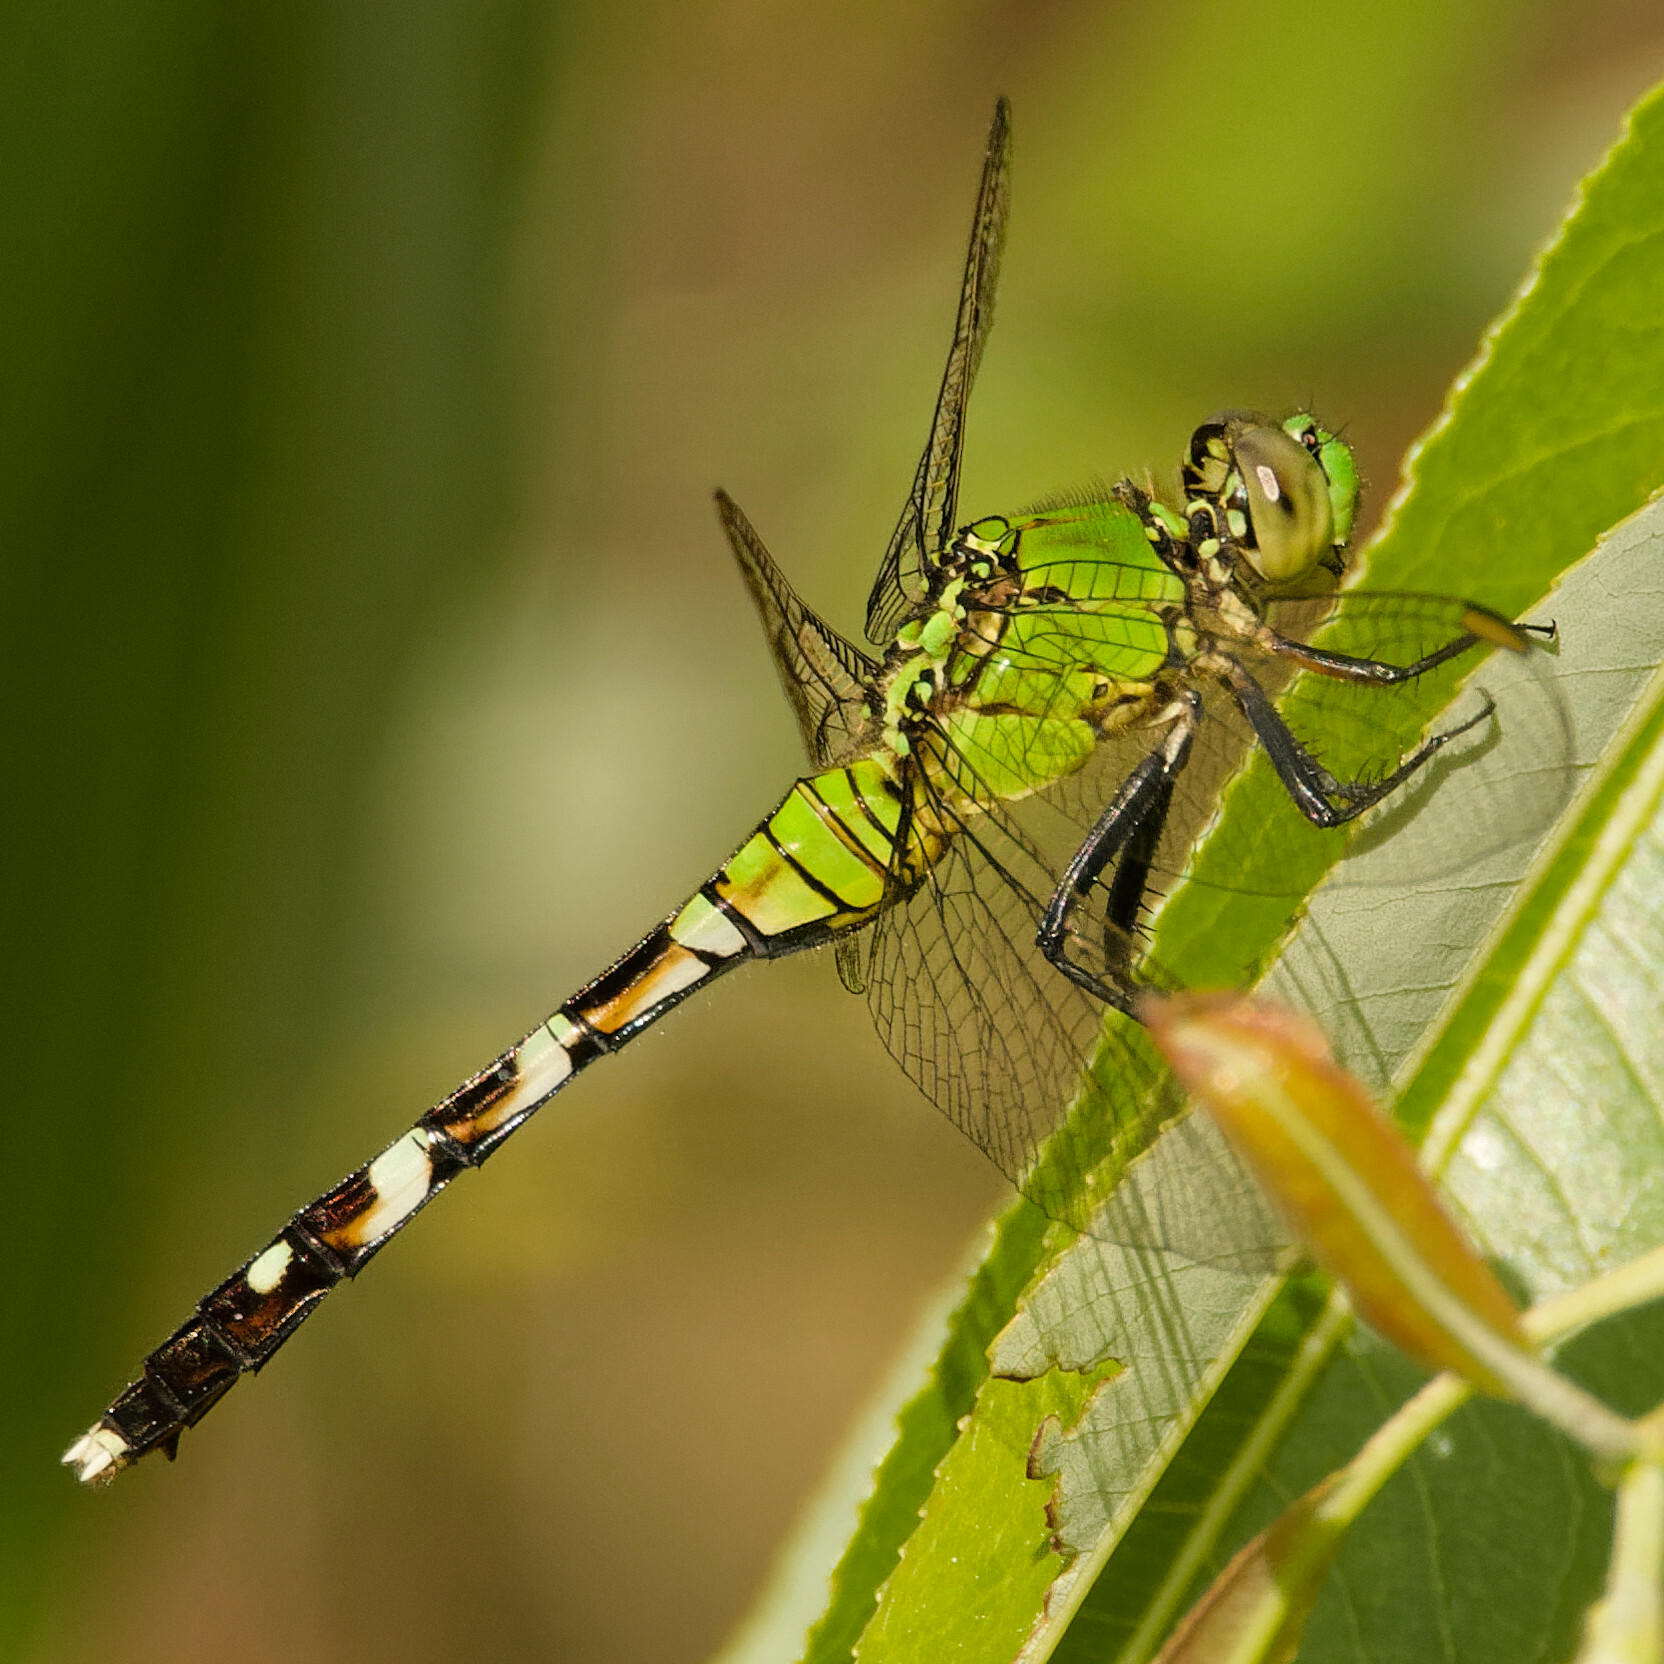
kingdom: Animalia
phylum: Arthropoda
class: Insecta
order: Odonata
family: Libellulidae
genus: Erythemis
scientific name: Erythemis simplicicollis
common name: Eastern pondhawk
